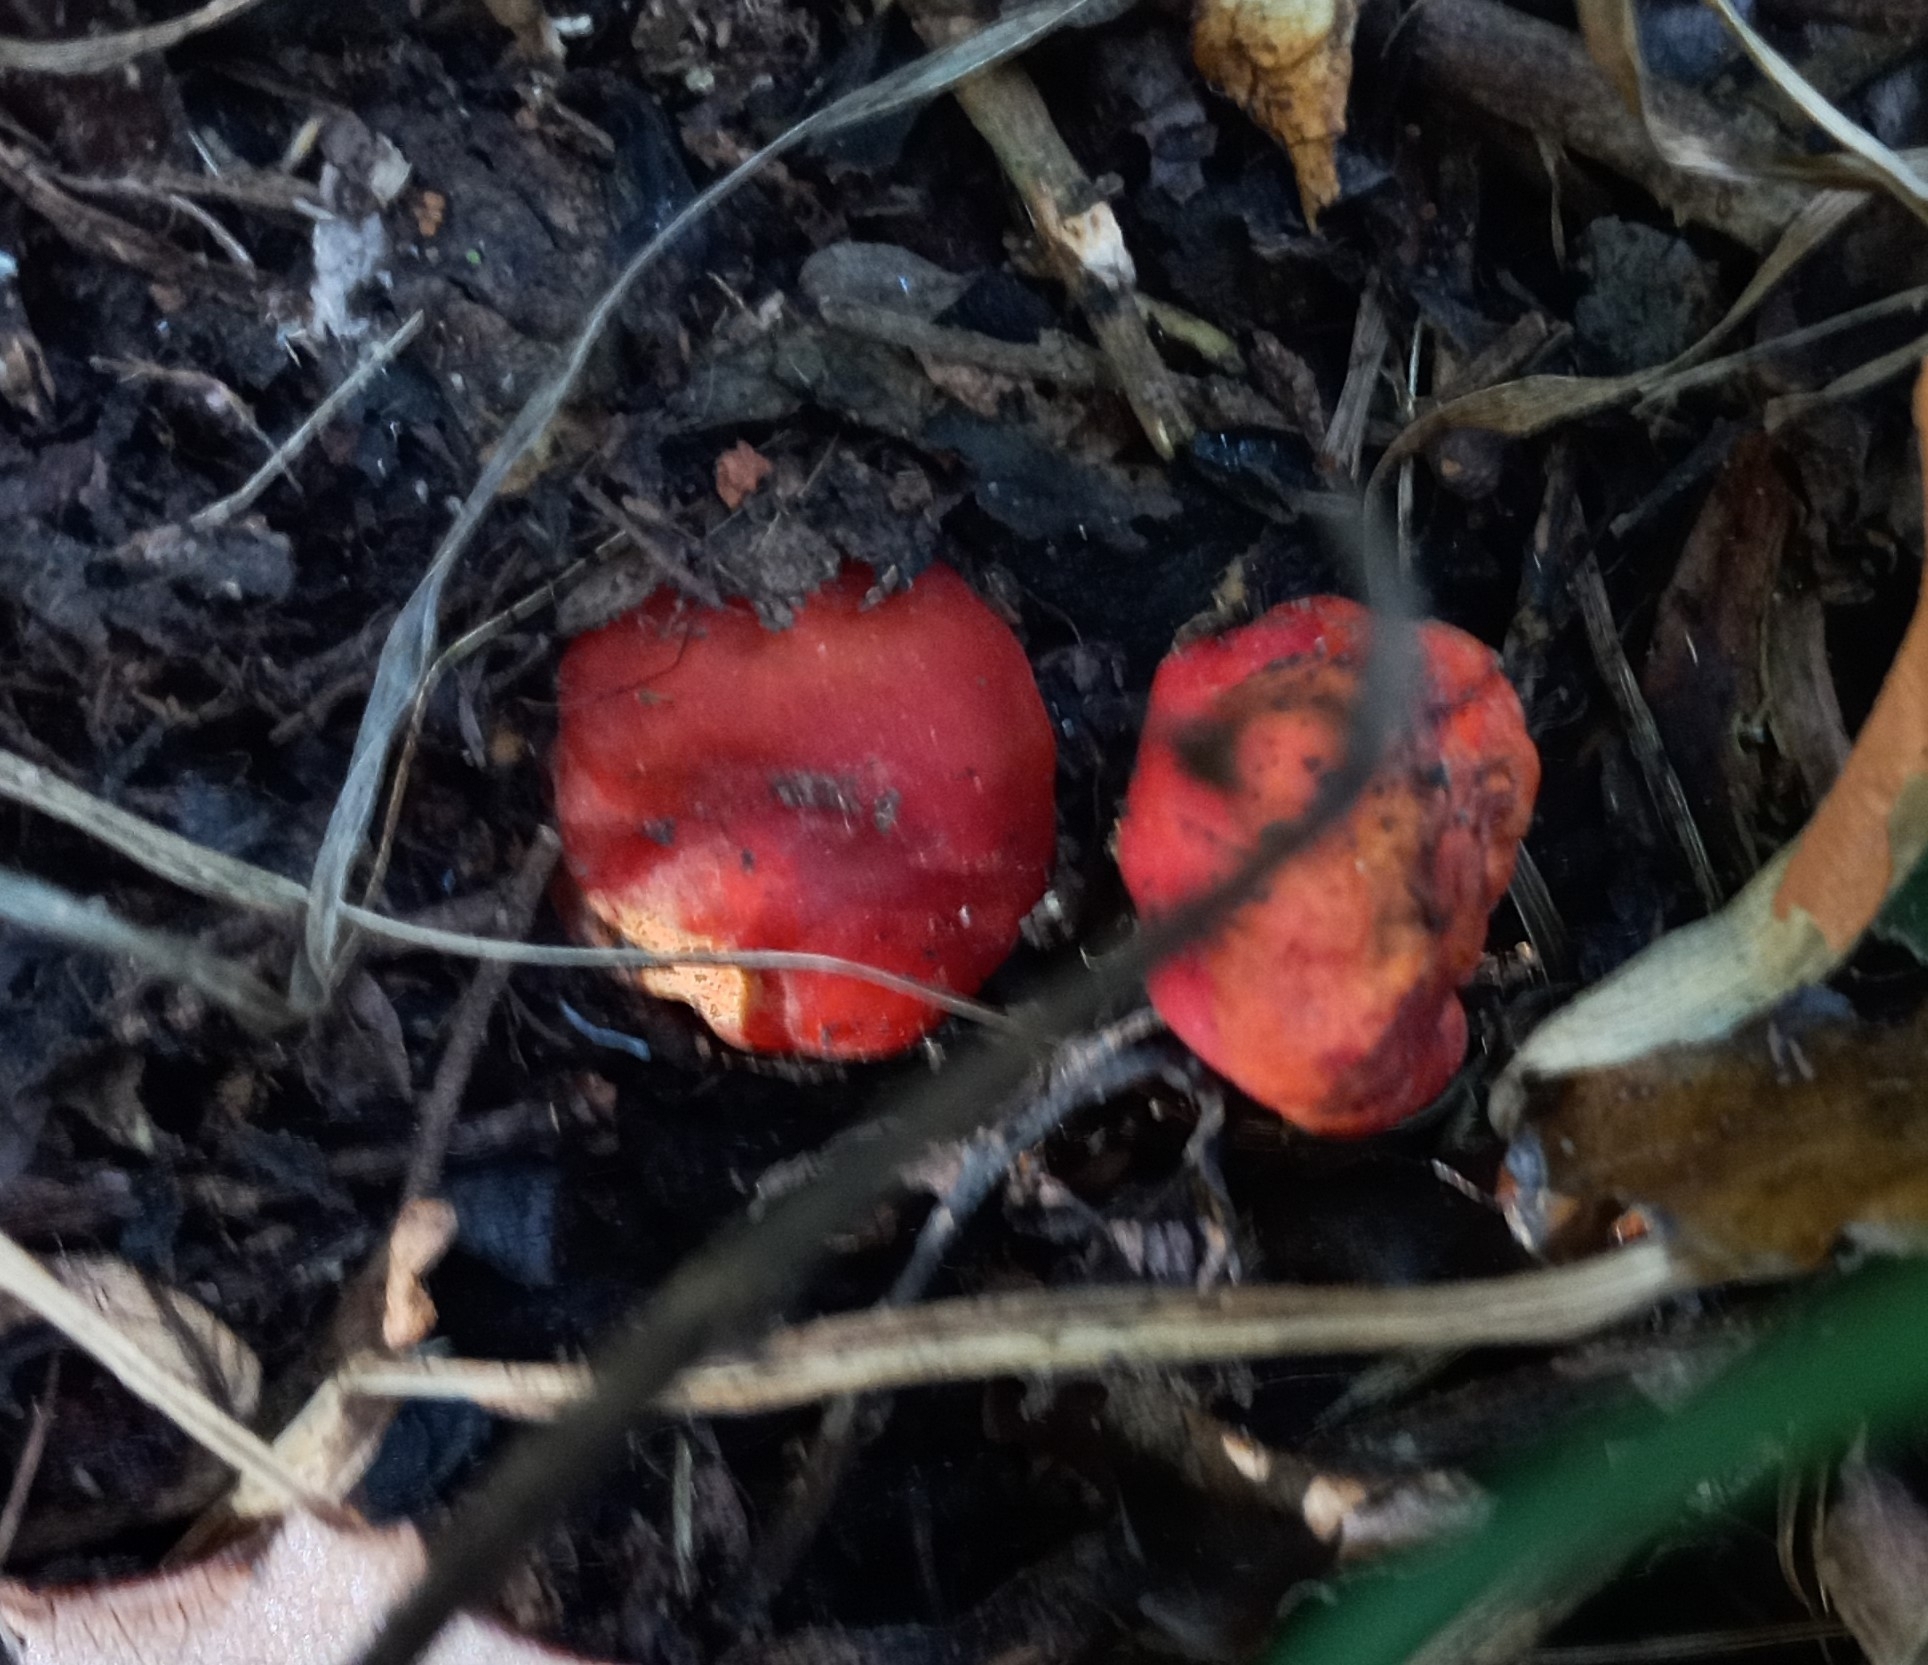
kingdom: Fungi
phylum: Ascomycota
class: Pezizomycetes
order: Pezizales
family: Pyronemataceae
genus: Paurocotylis
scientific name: Paurocotylis pila
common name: Scarlet berry truffle
